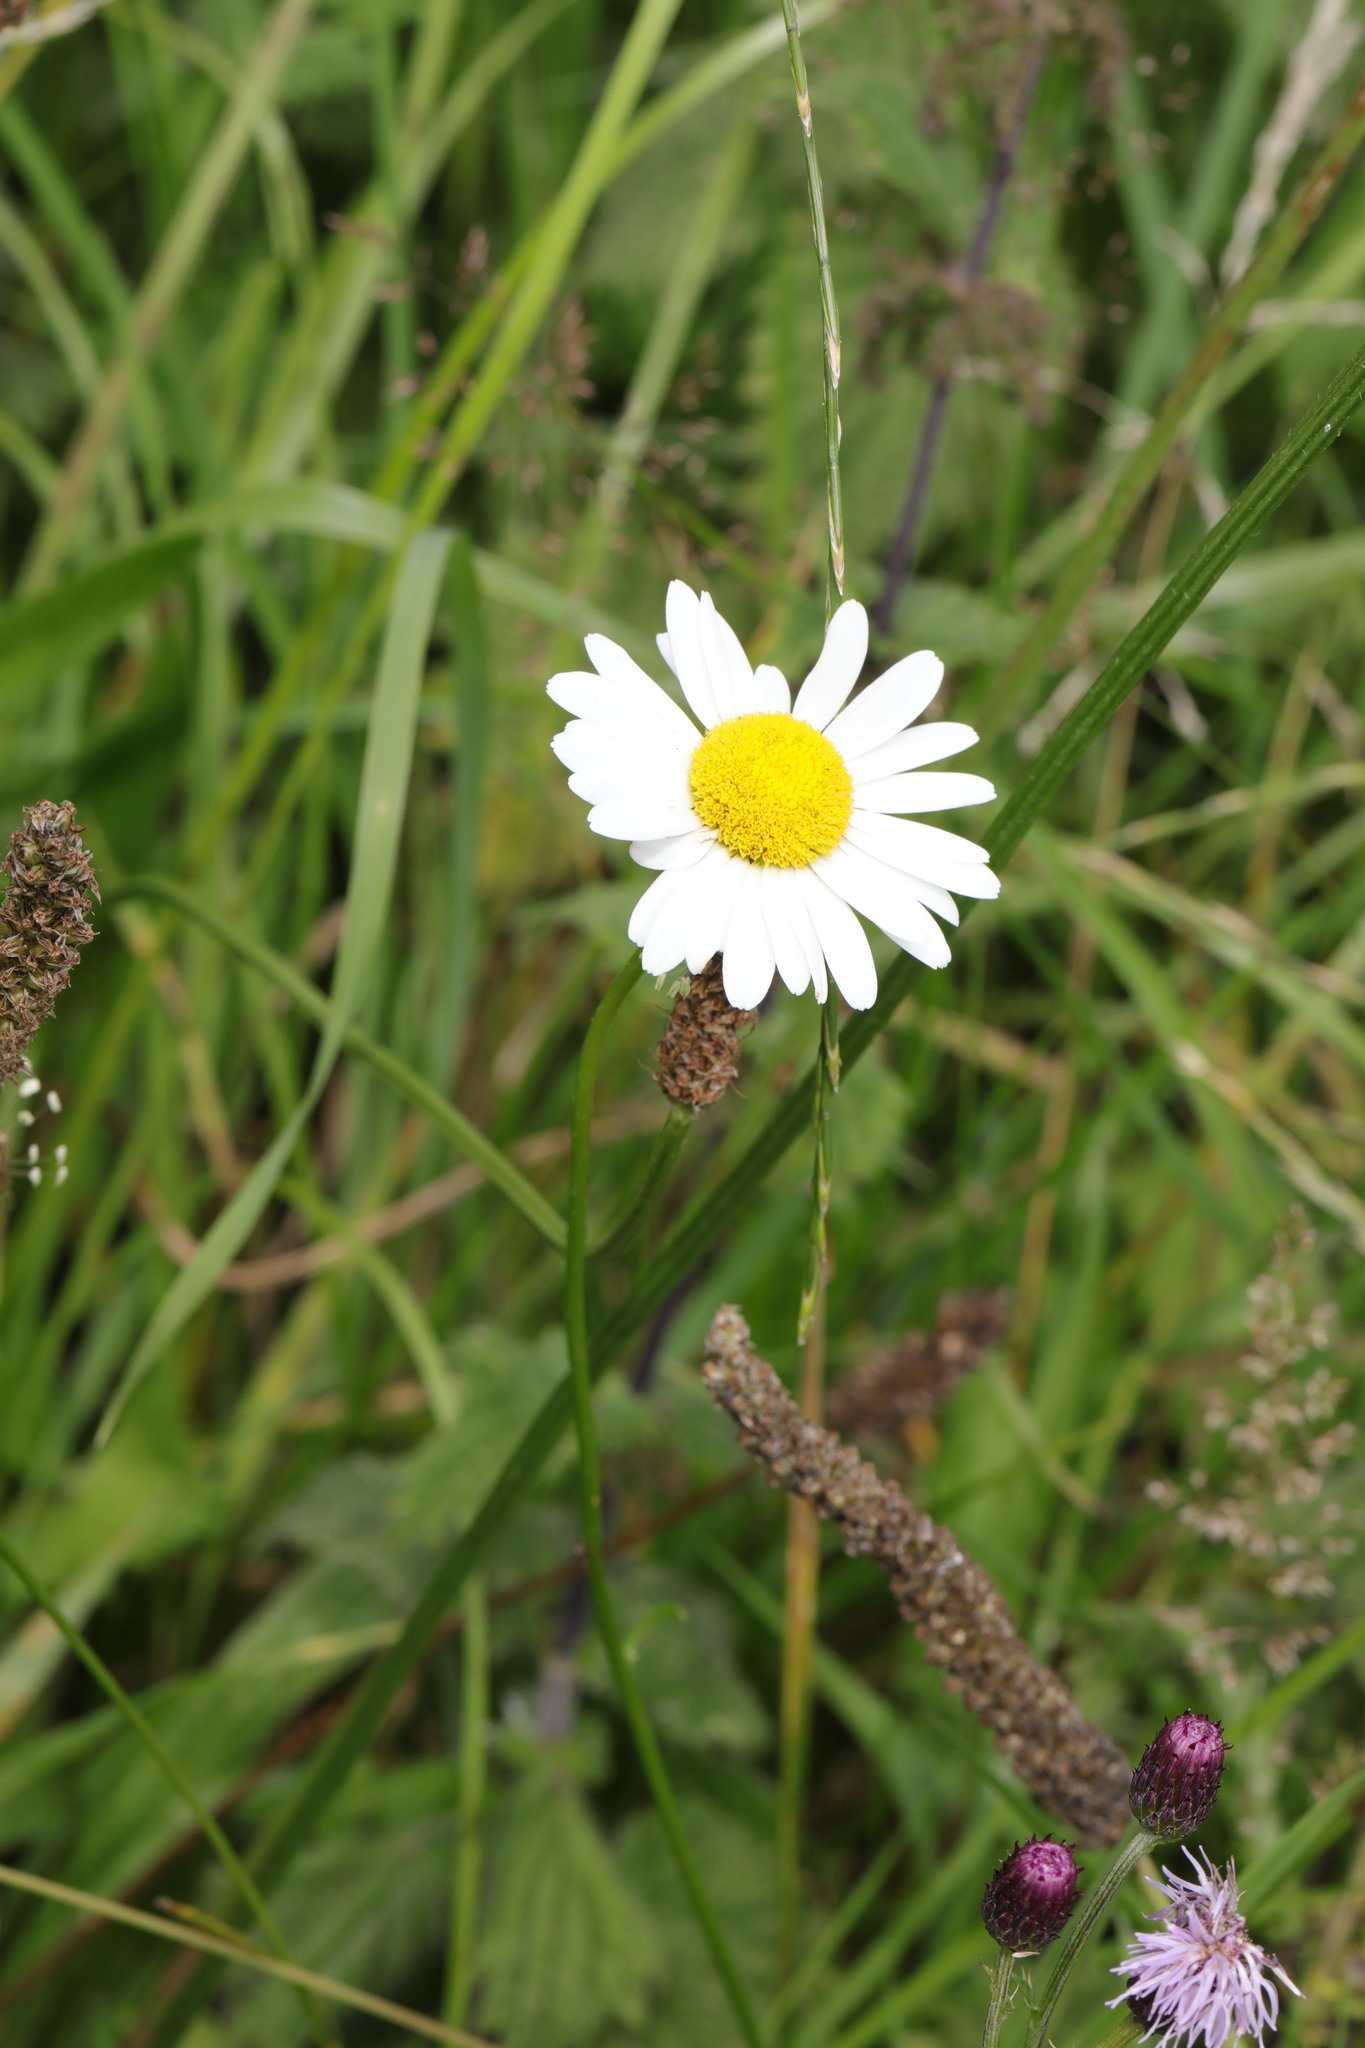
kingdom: Plantae
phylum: Tracheophyta
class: Magnoliopsida
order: Asterales
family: Asteraceae
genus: Leucanthemum
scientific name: Leucanthemum vulgare
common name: Oxeye daisy
